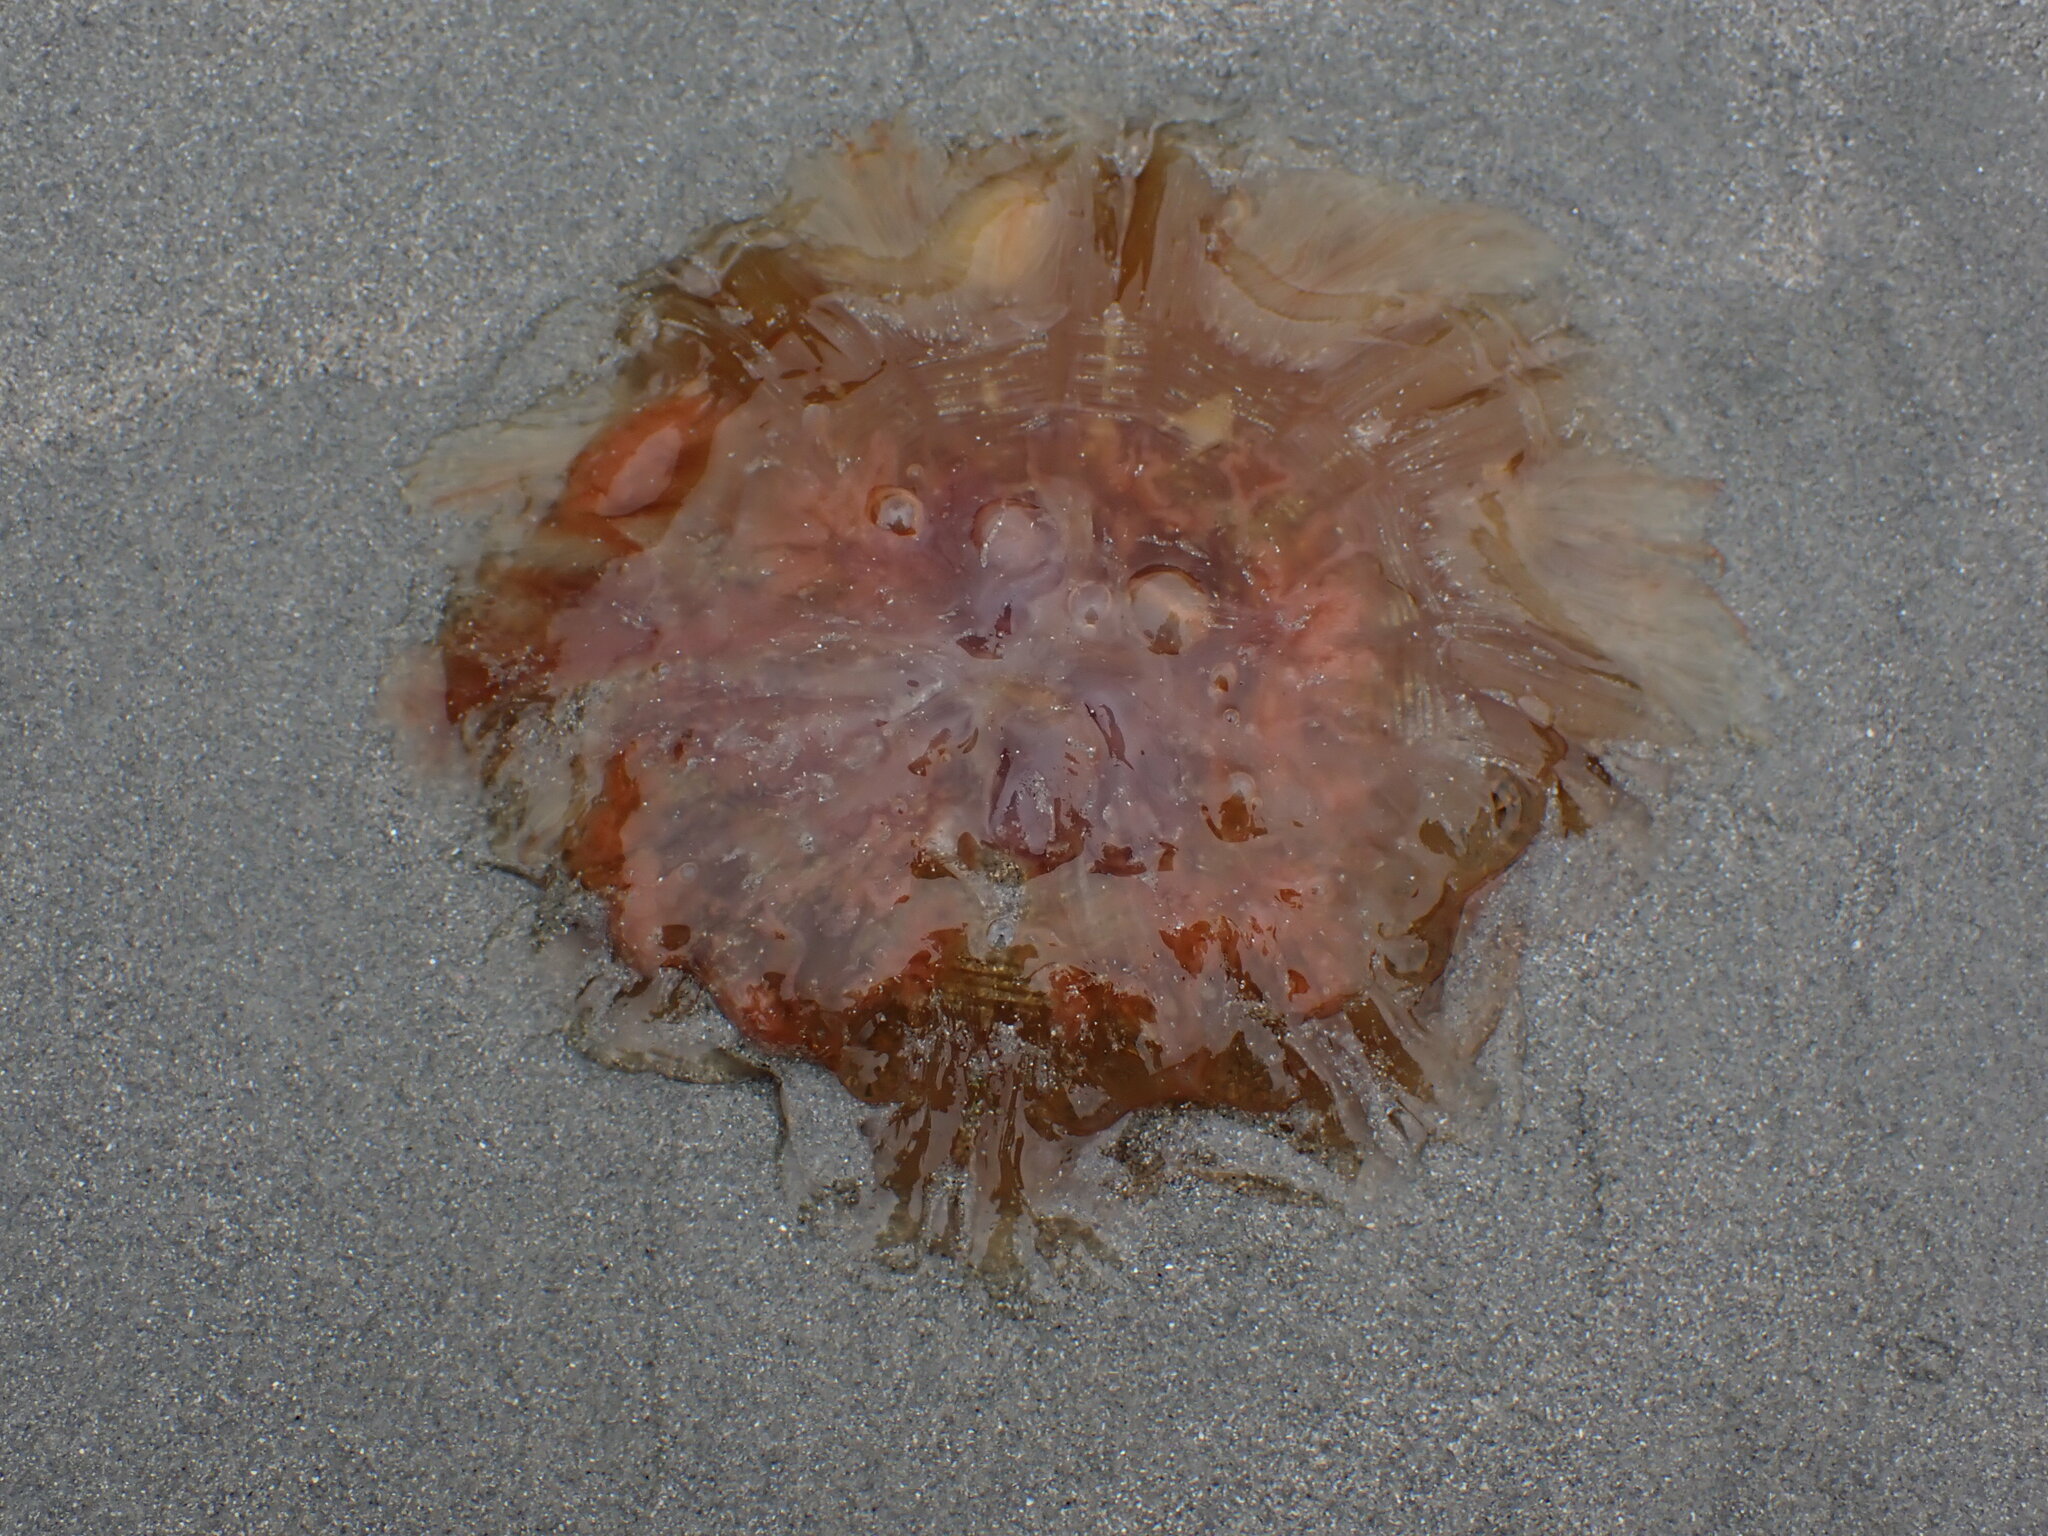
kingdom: Animalia
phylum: Cnidaria
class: Scyphozoa
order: Semaeostomeae
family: Cyaneidae
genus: Cyanea
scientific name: Cyanea ferruginea
